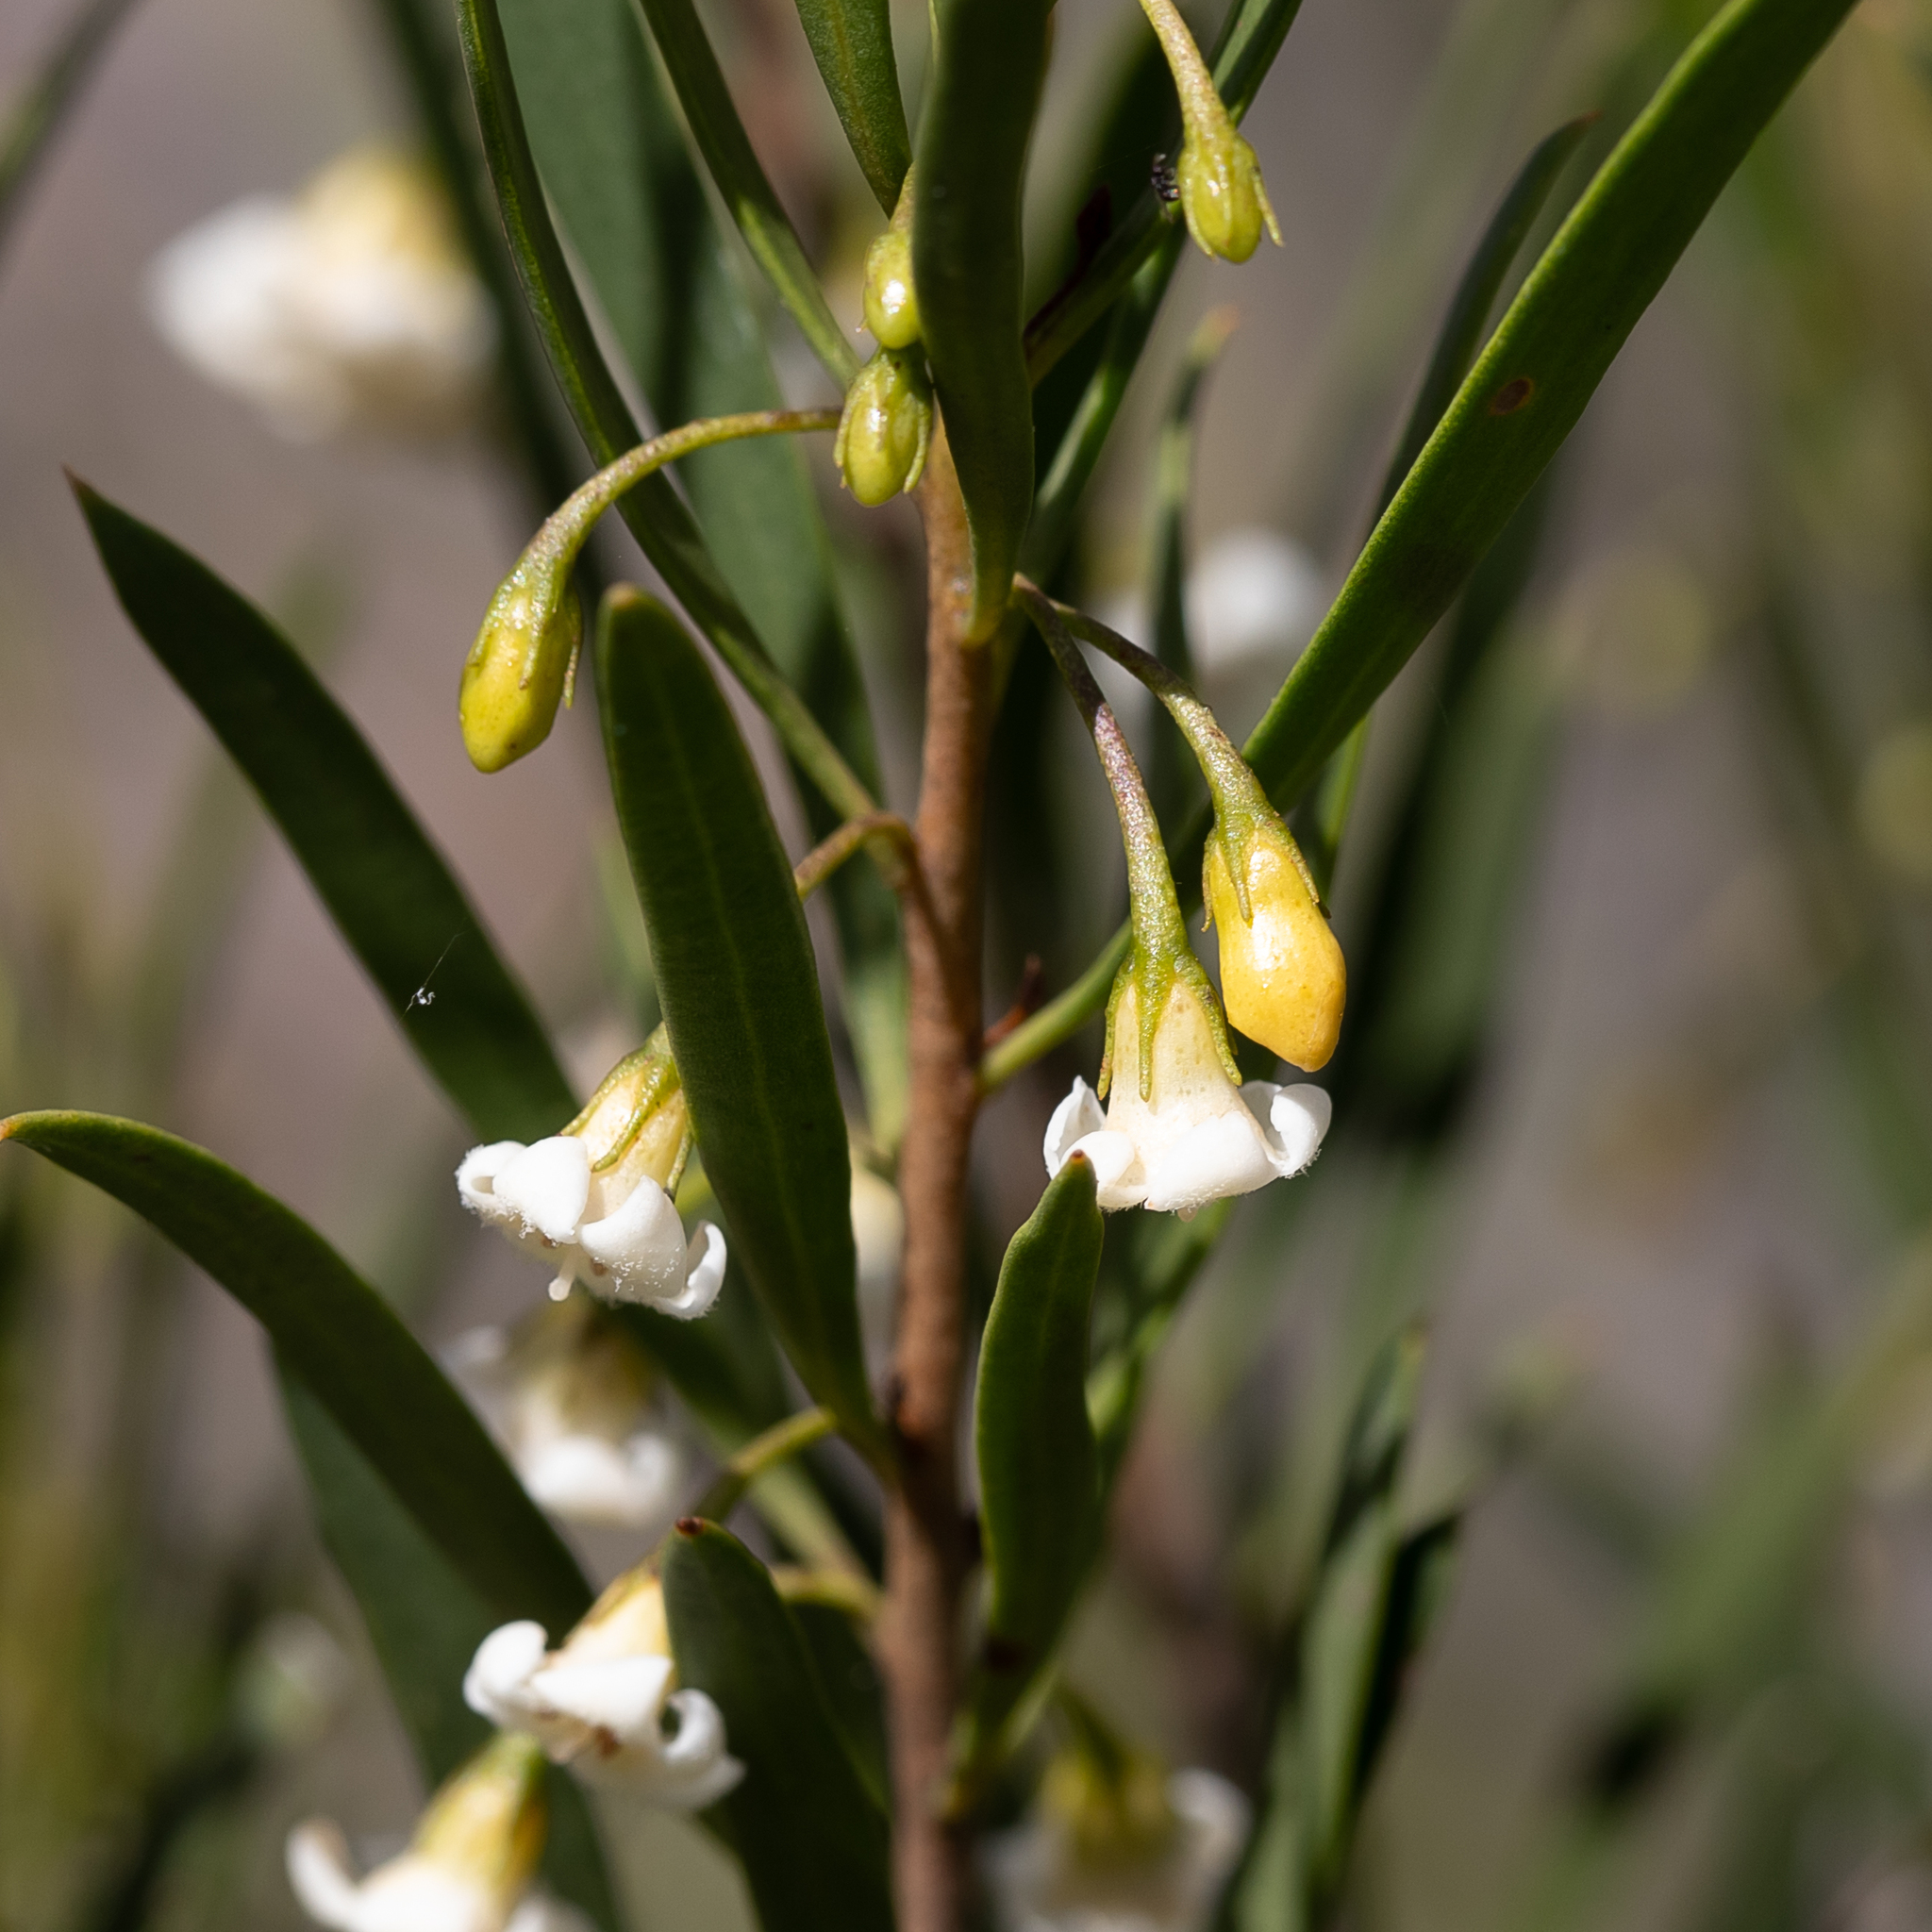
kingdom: Plantae
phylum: Tracheophyta
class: Magnoliopsida
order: Lamiales
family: Scrophulariaceae
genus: Eremophila
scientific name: Eremophila deserti
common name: Ellangowan-poisonbush
